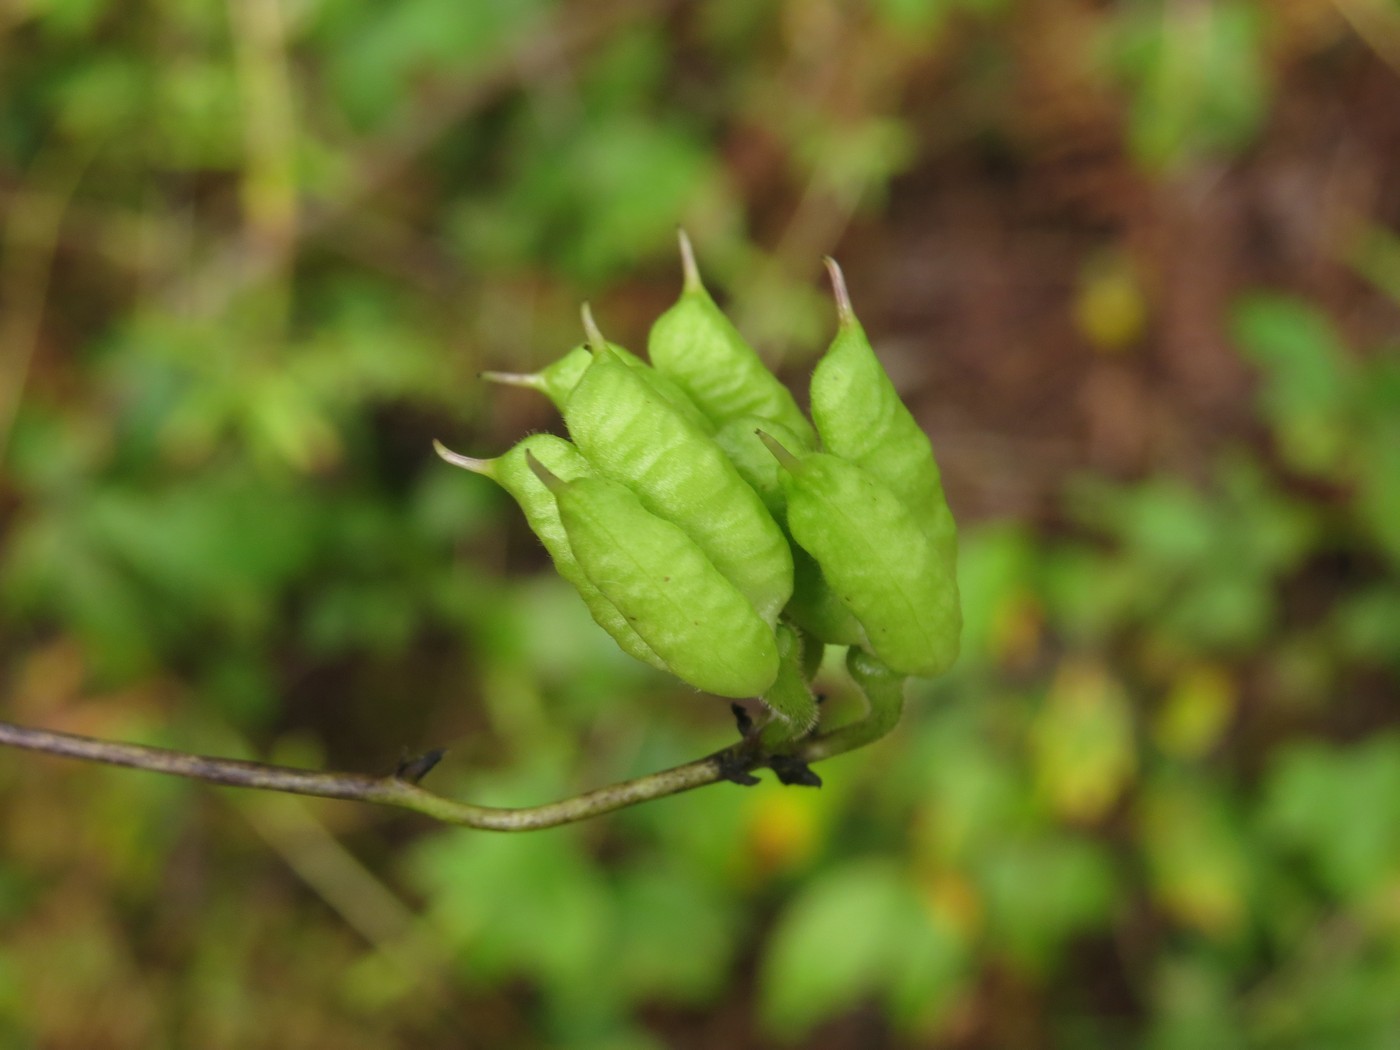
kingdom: Plantae
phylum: Tracheophyta
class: Magnoliopsida
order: Ranunculales
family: Ranunculaceae
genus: Aconitum
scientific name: Aconitum uncinatum
